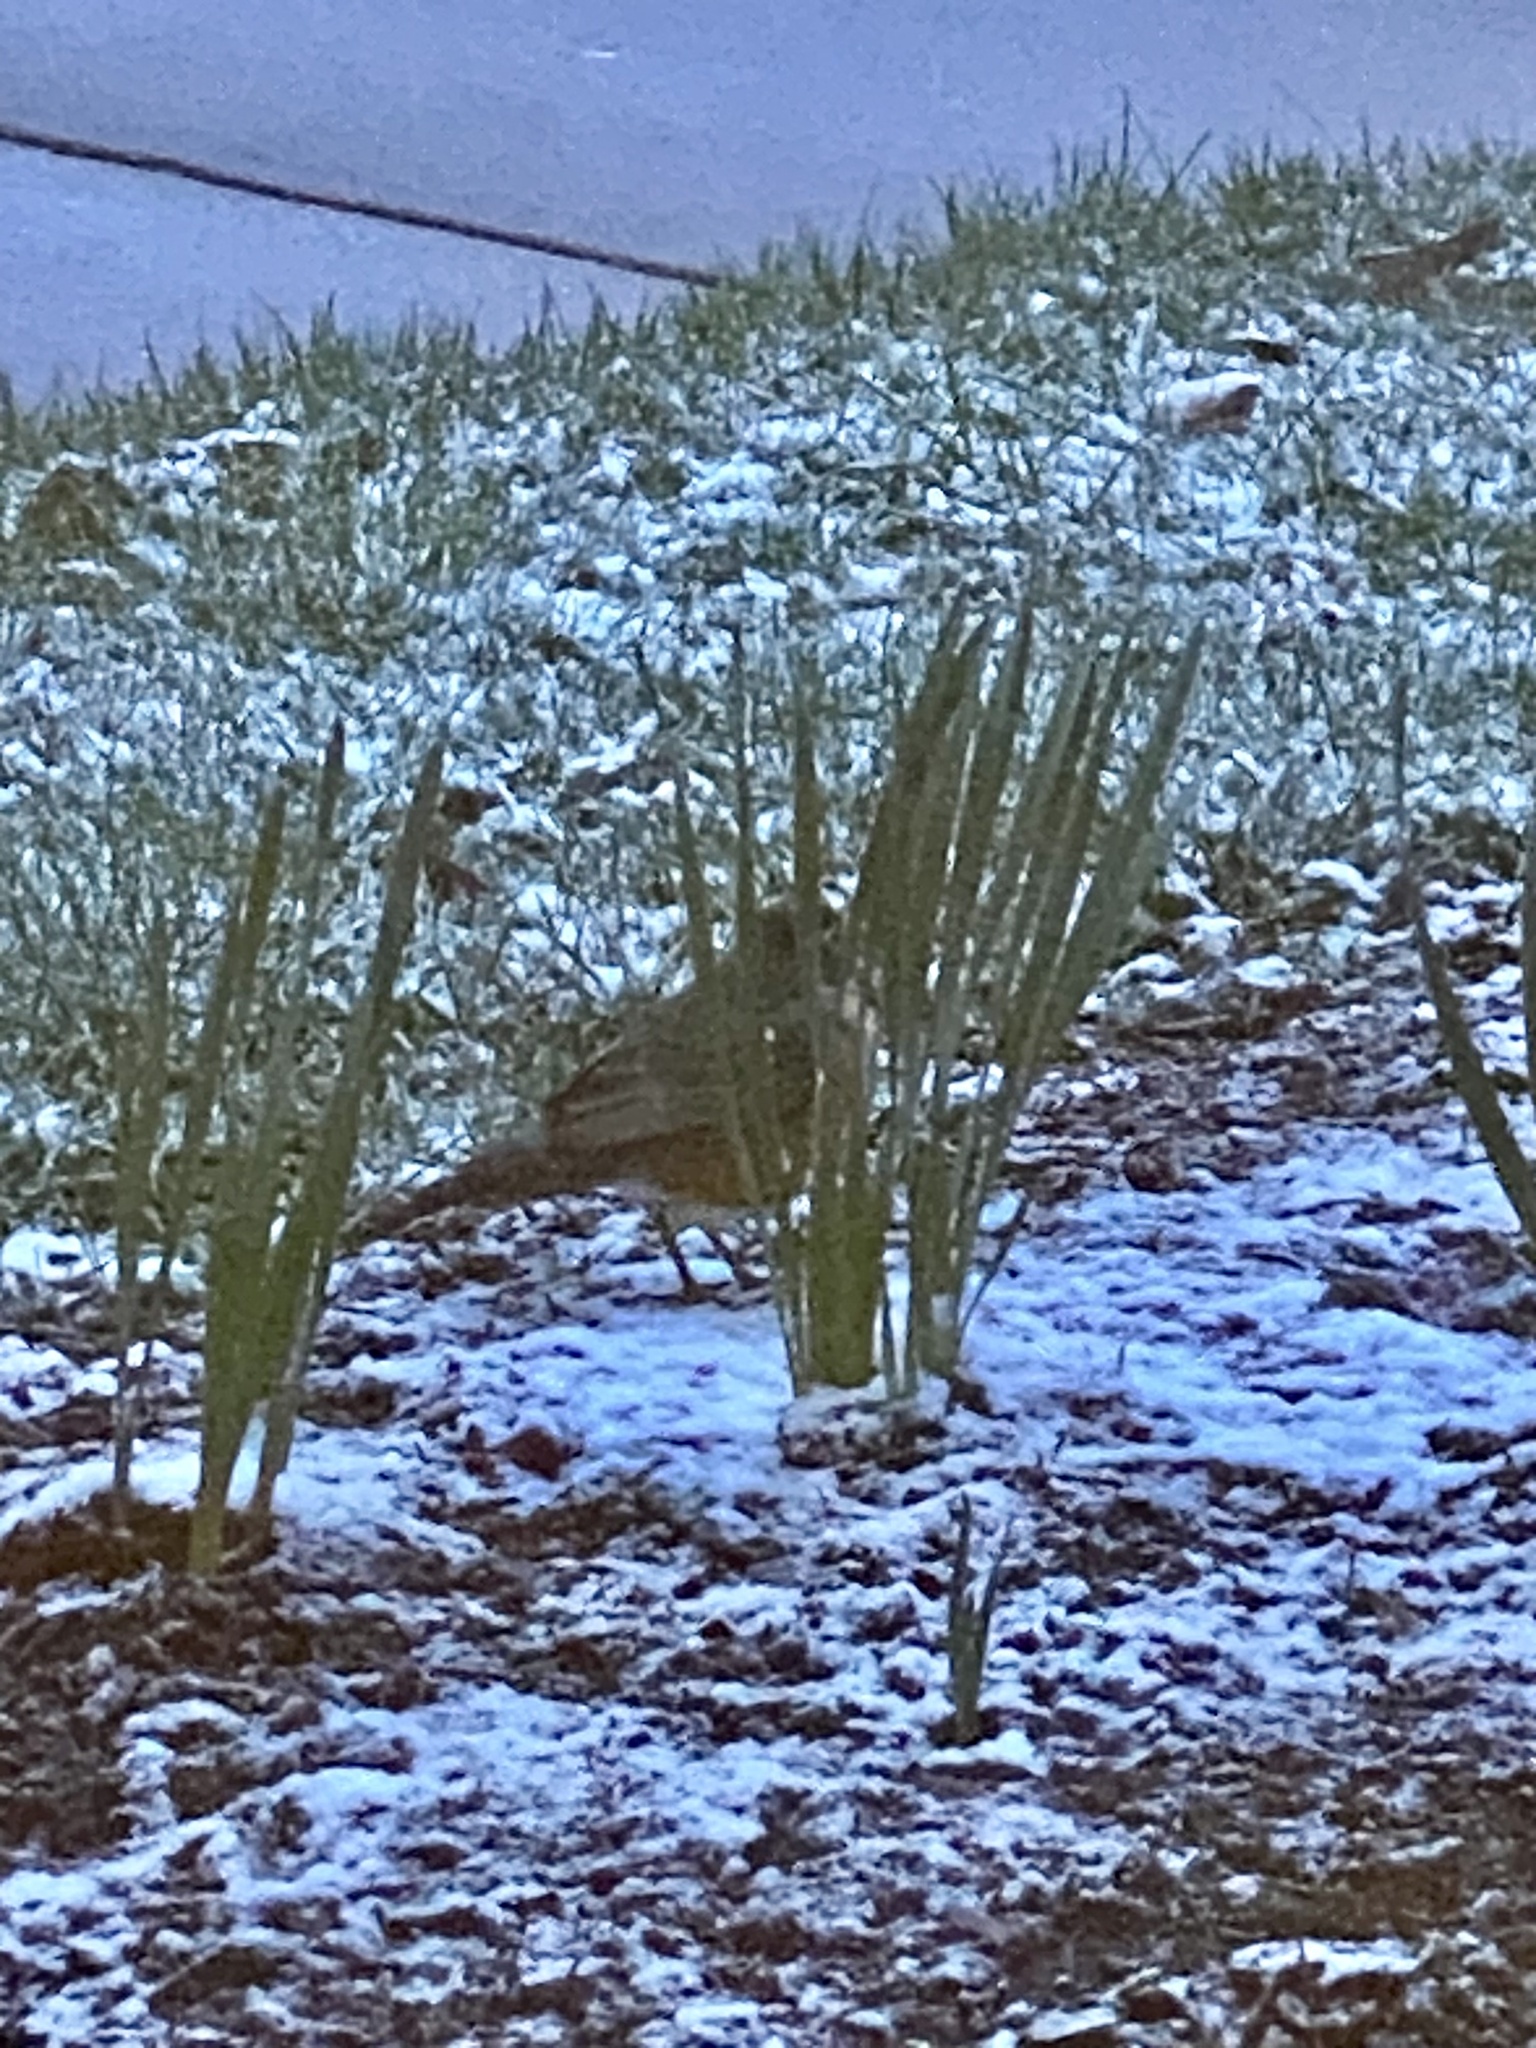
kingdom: Animalia
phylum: Chordata
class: Aves
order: Passeriformes
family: Turdidae
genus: Turdus
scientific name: Turdus migratorius
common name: American robin
